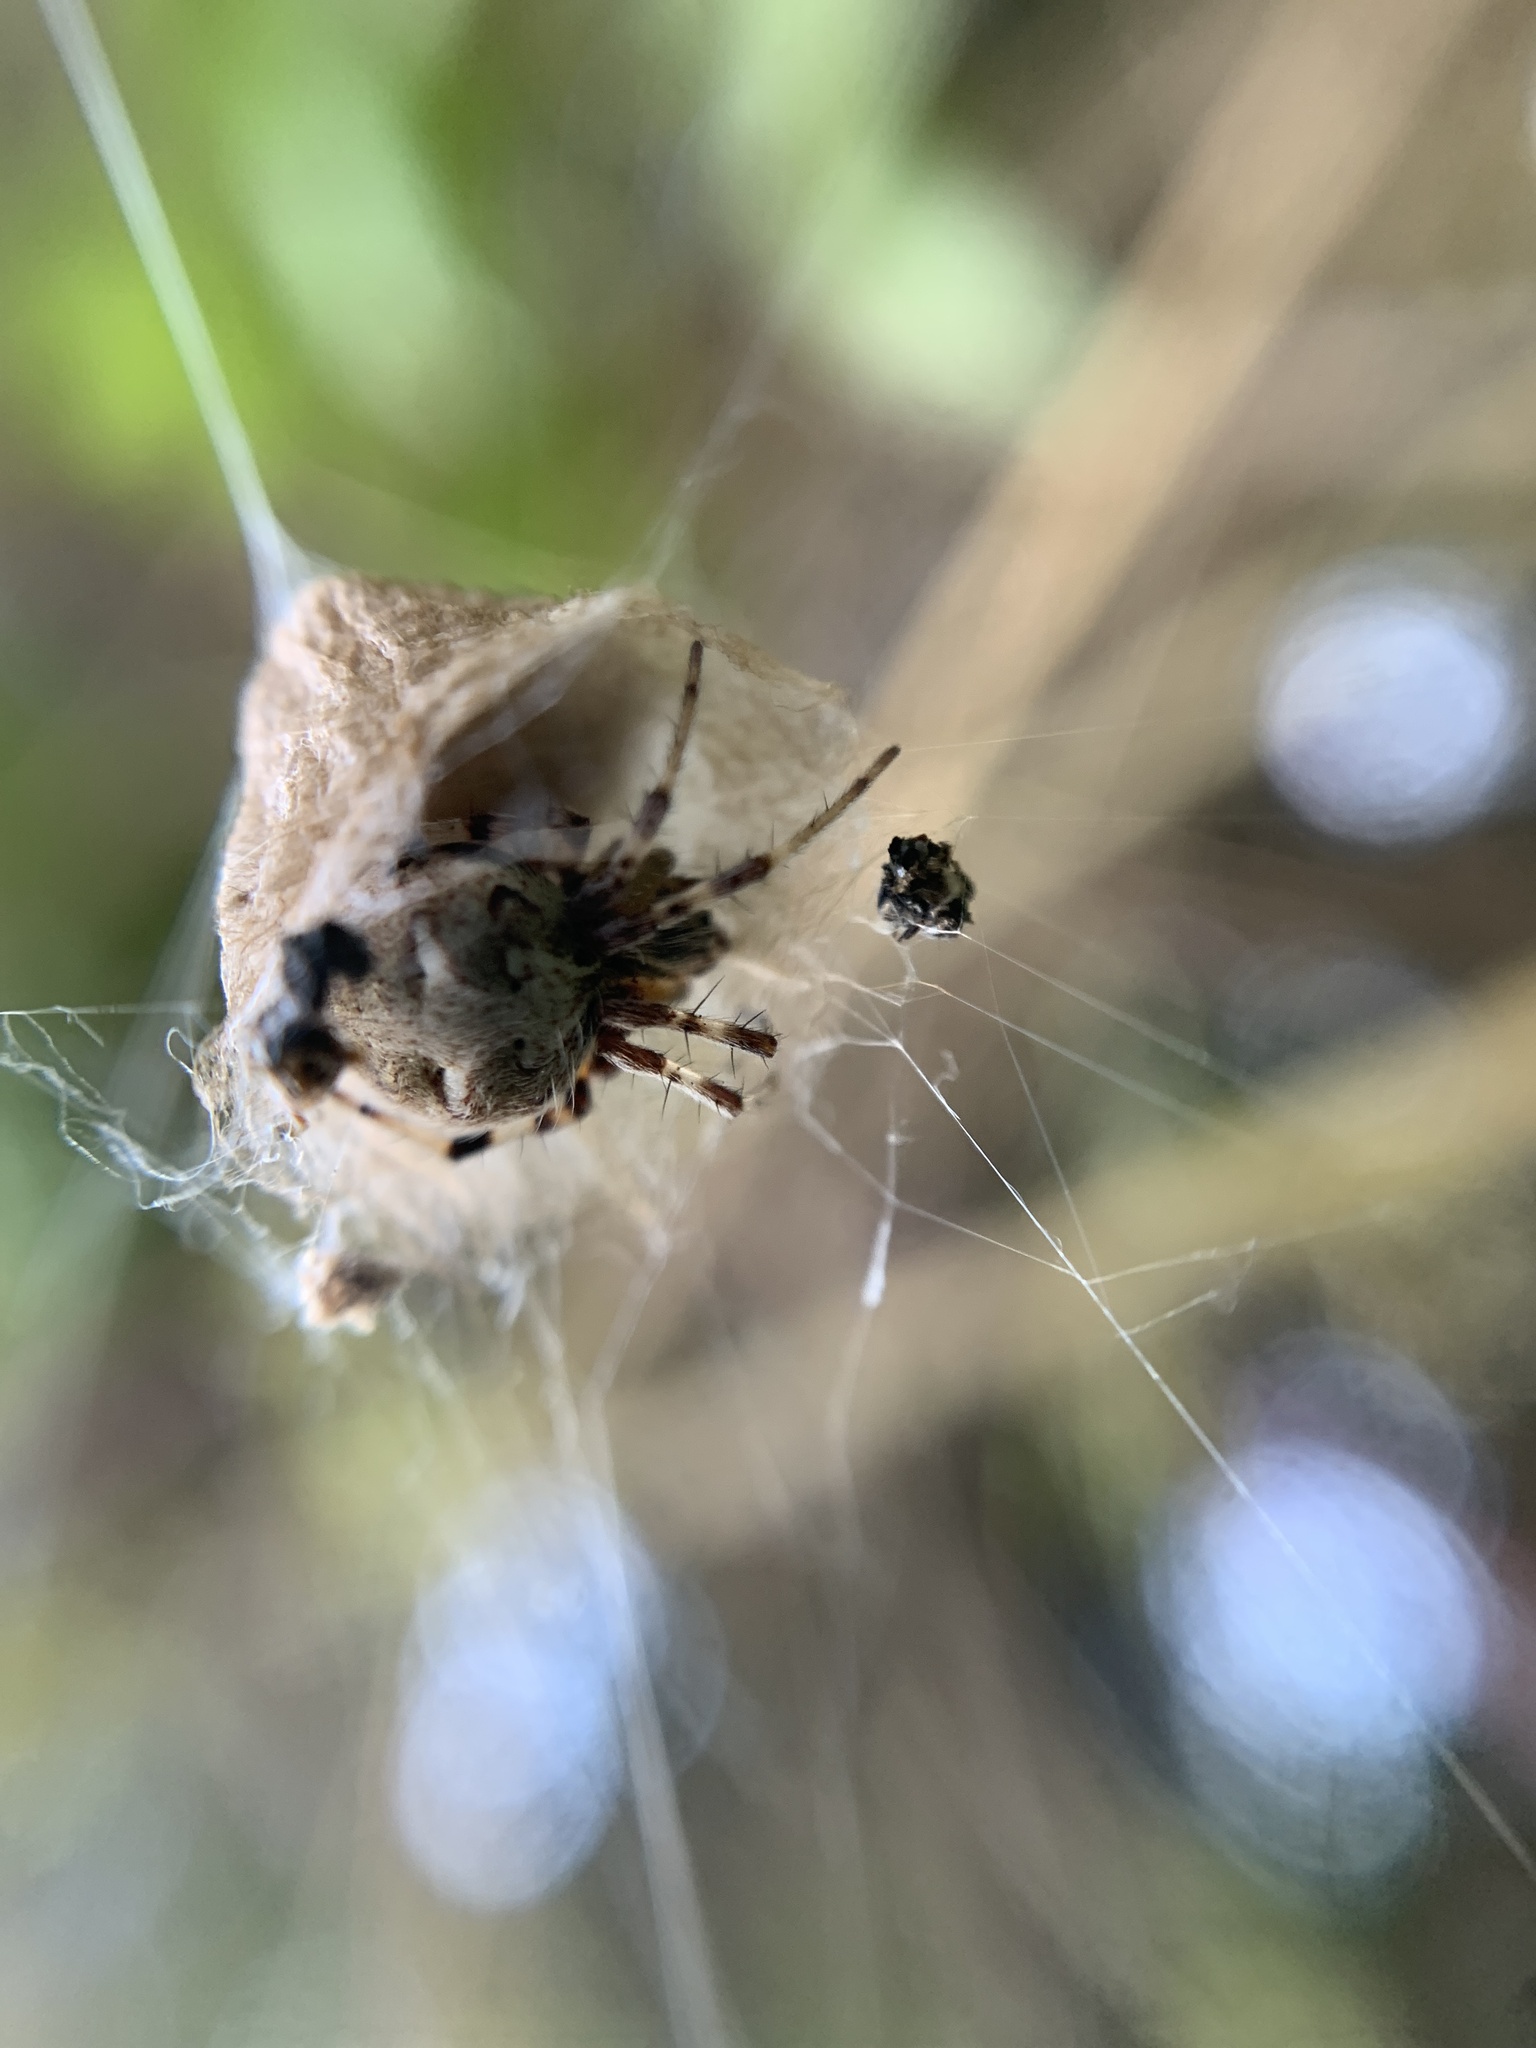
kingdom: Animalia
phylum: Arthropoda
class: Arachnida
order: Araneae
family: Araneidae
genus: Metepeira
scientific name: Metepeira
